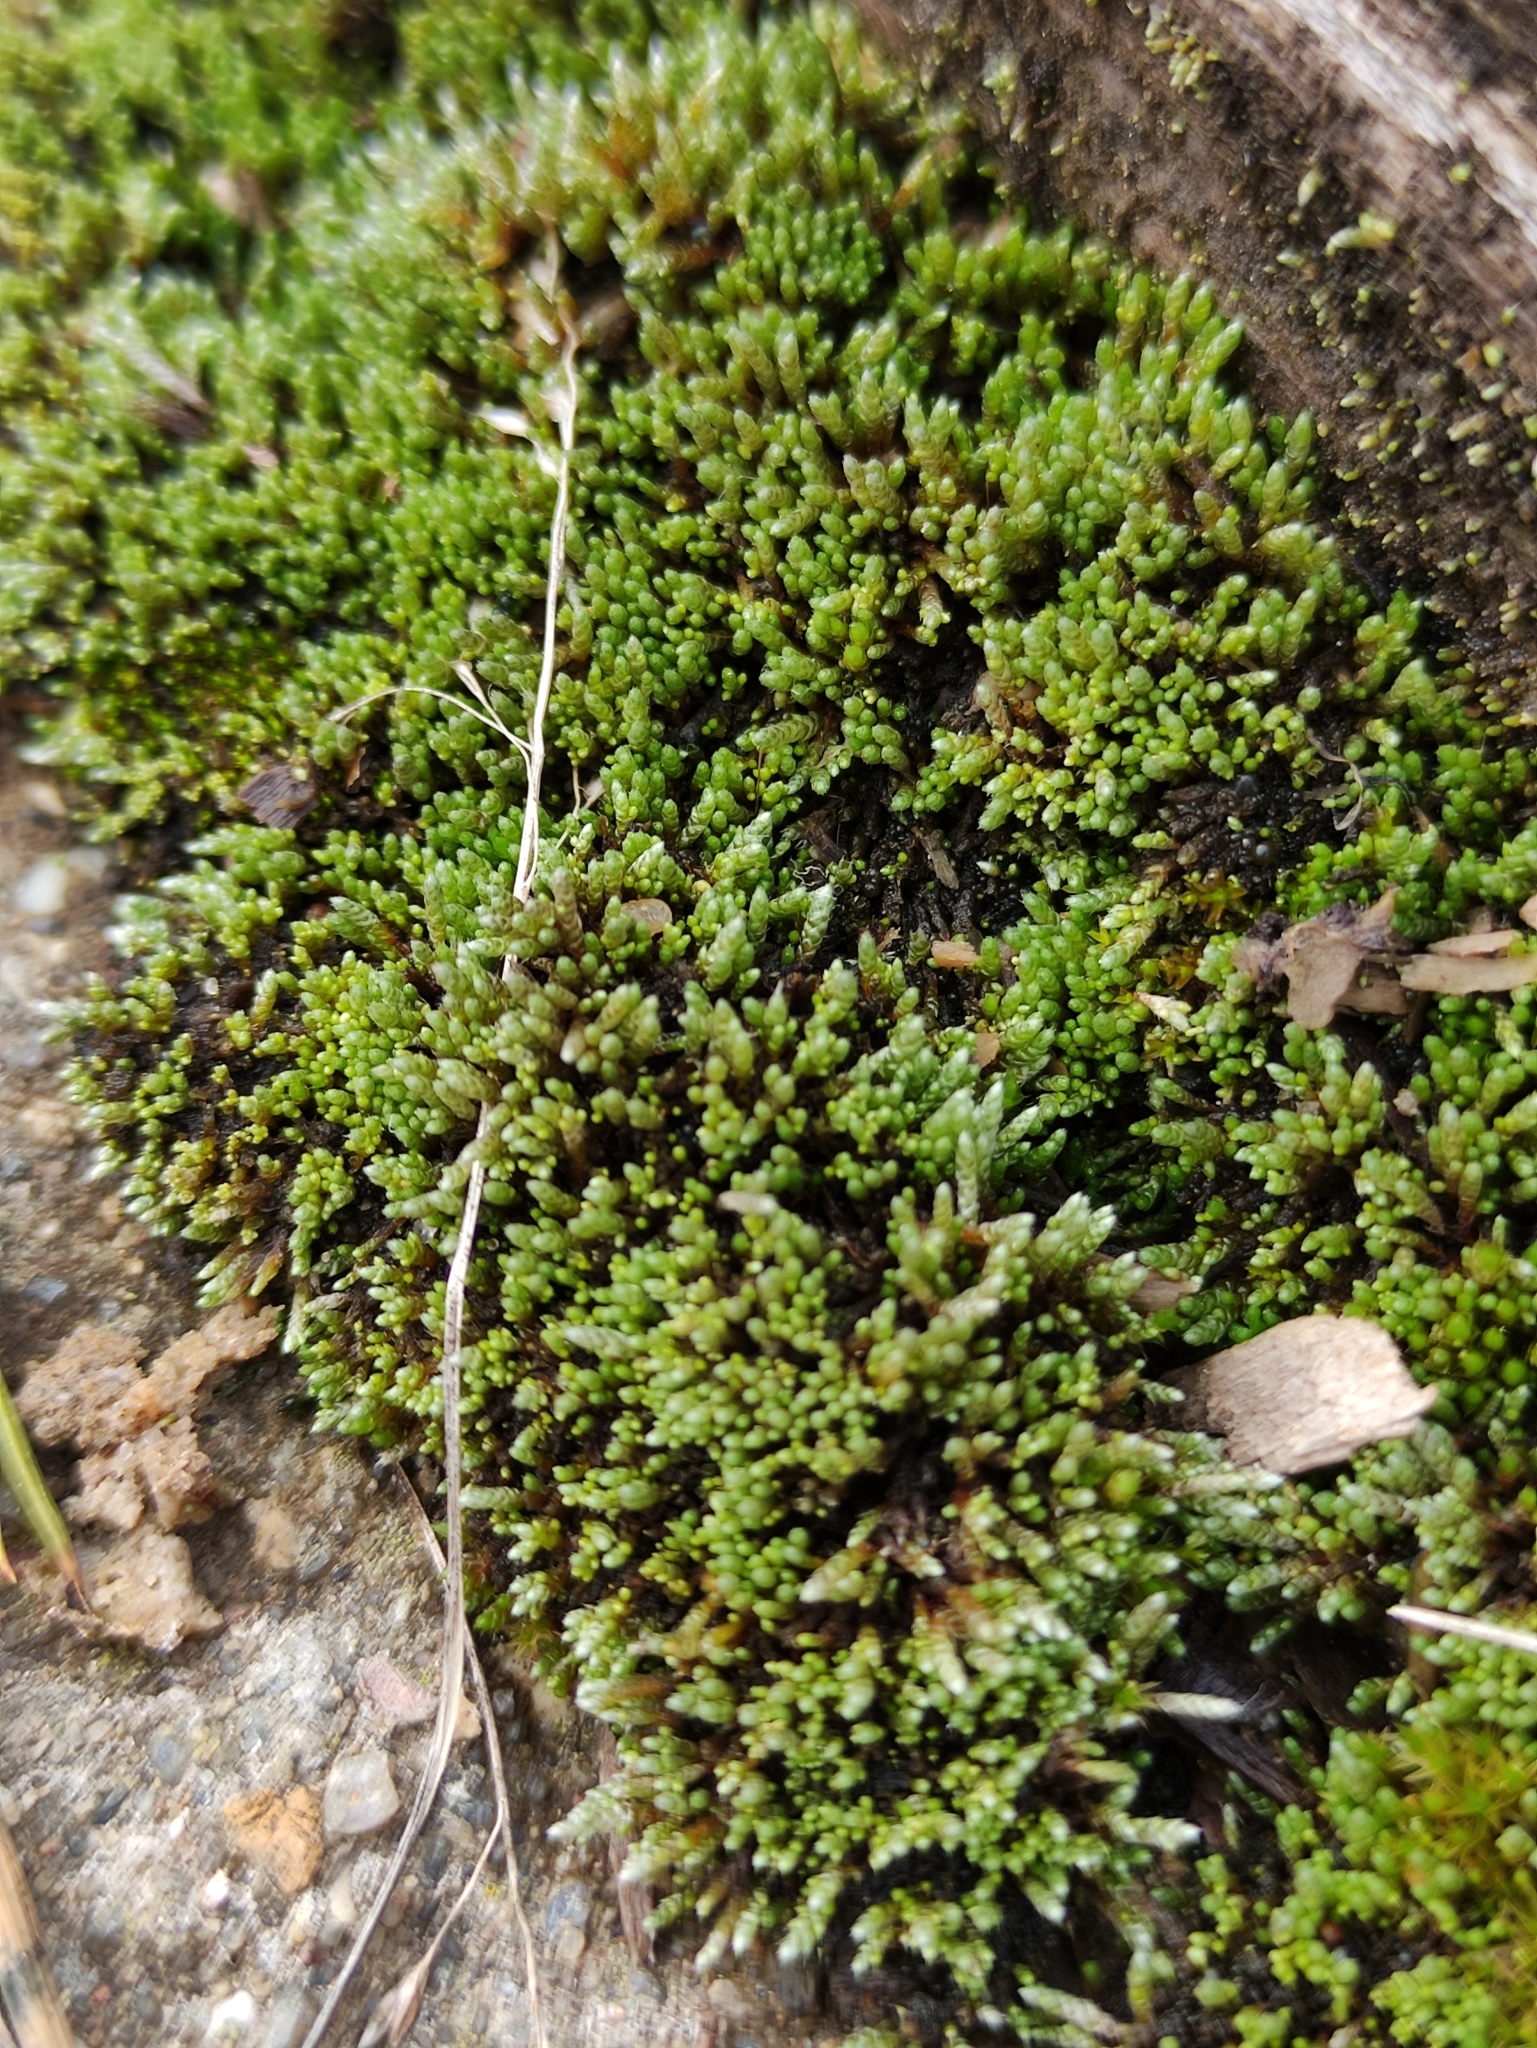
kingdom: Plantae
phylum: Bryophyta
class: Bryopsida
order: Bryales
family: Bryaceae
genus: Bryum
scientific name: Bryum argenteum
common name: Silver-moss
